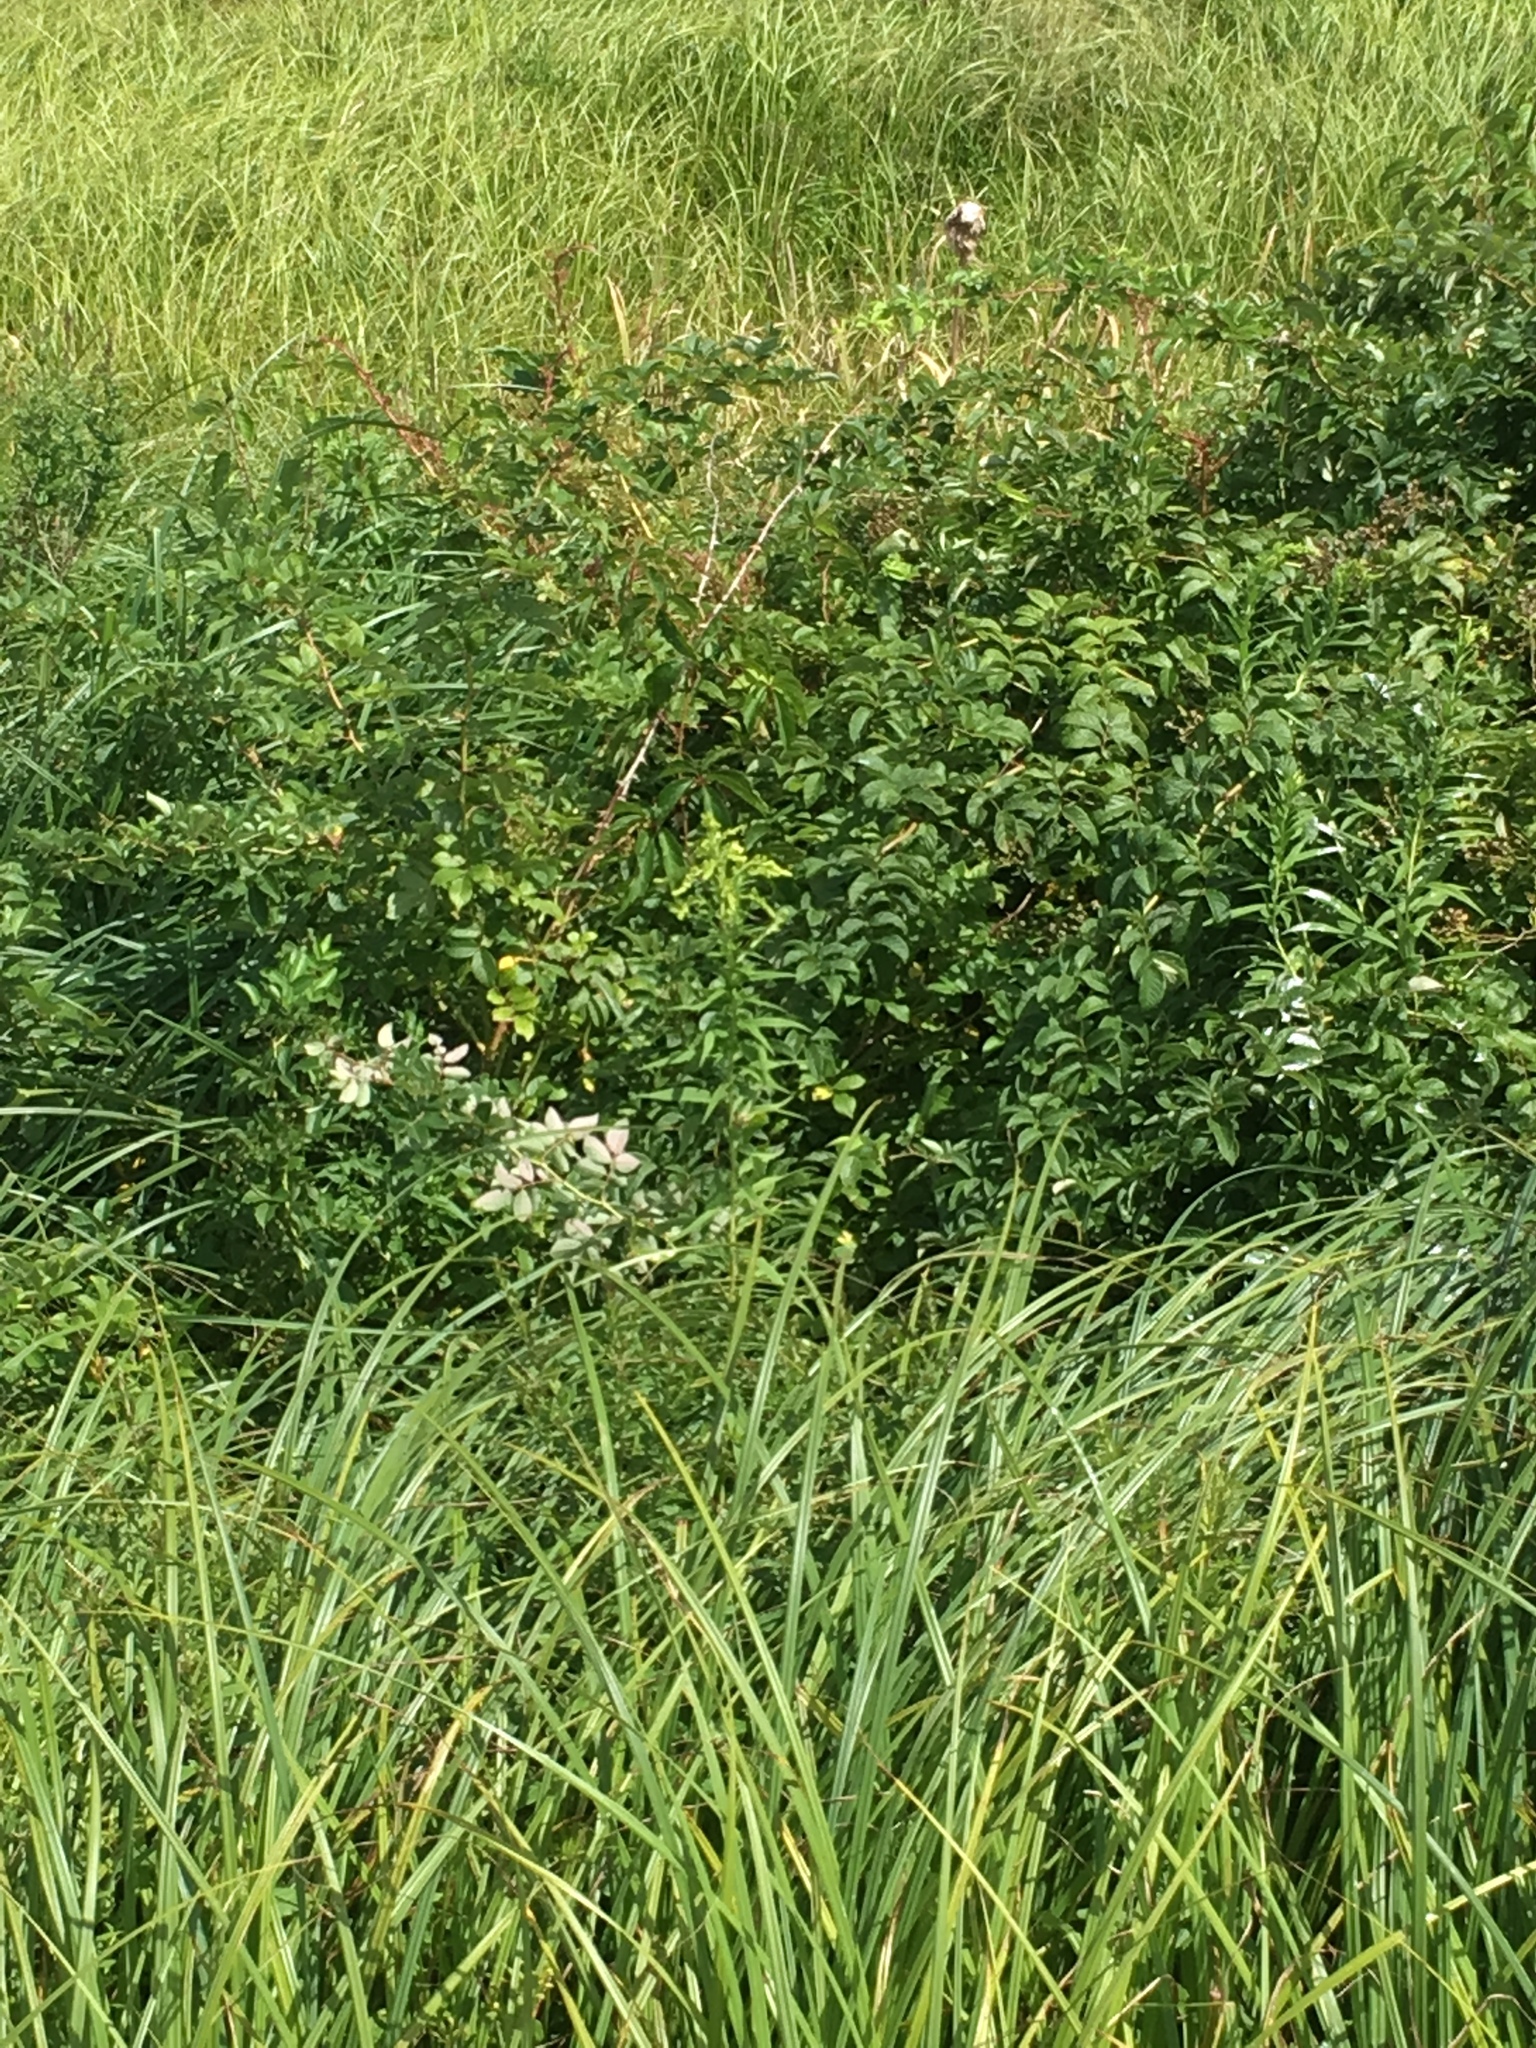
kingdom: Plantae
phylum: Tracheophyta
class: Magnoliopsida
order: Rosales
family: Rosaceae
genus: Rosa
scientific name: Rosa multiflora
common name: Multiflora rose
